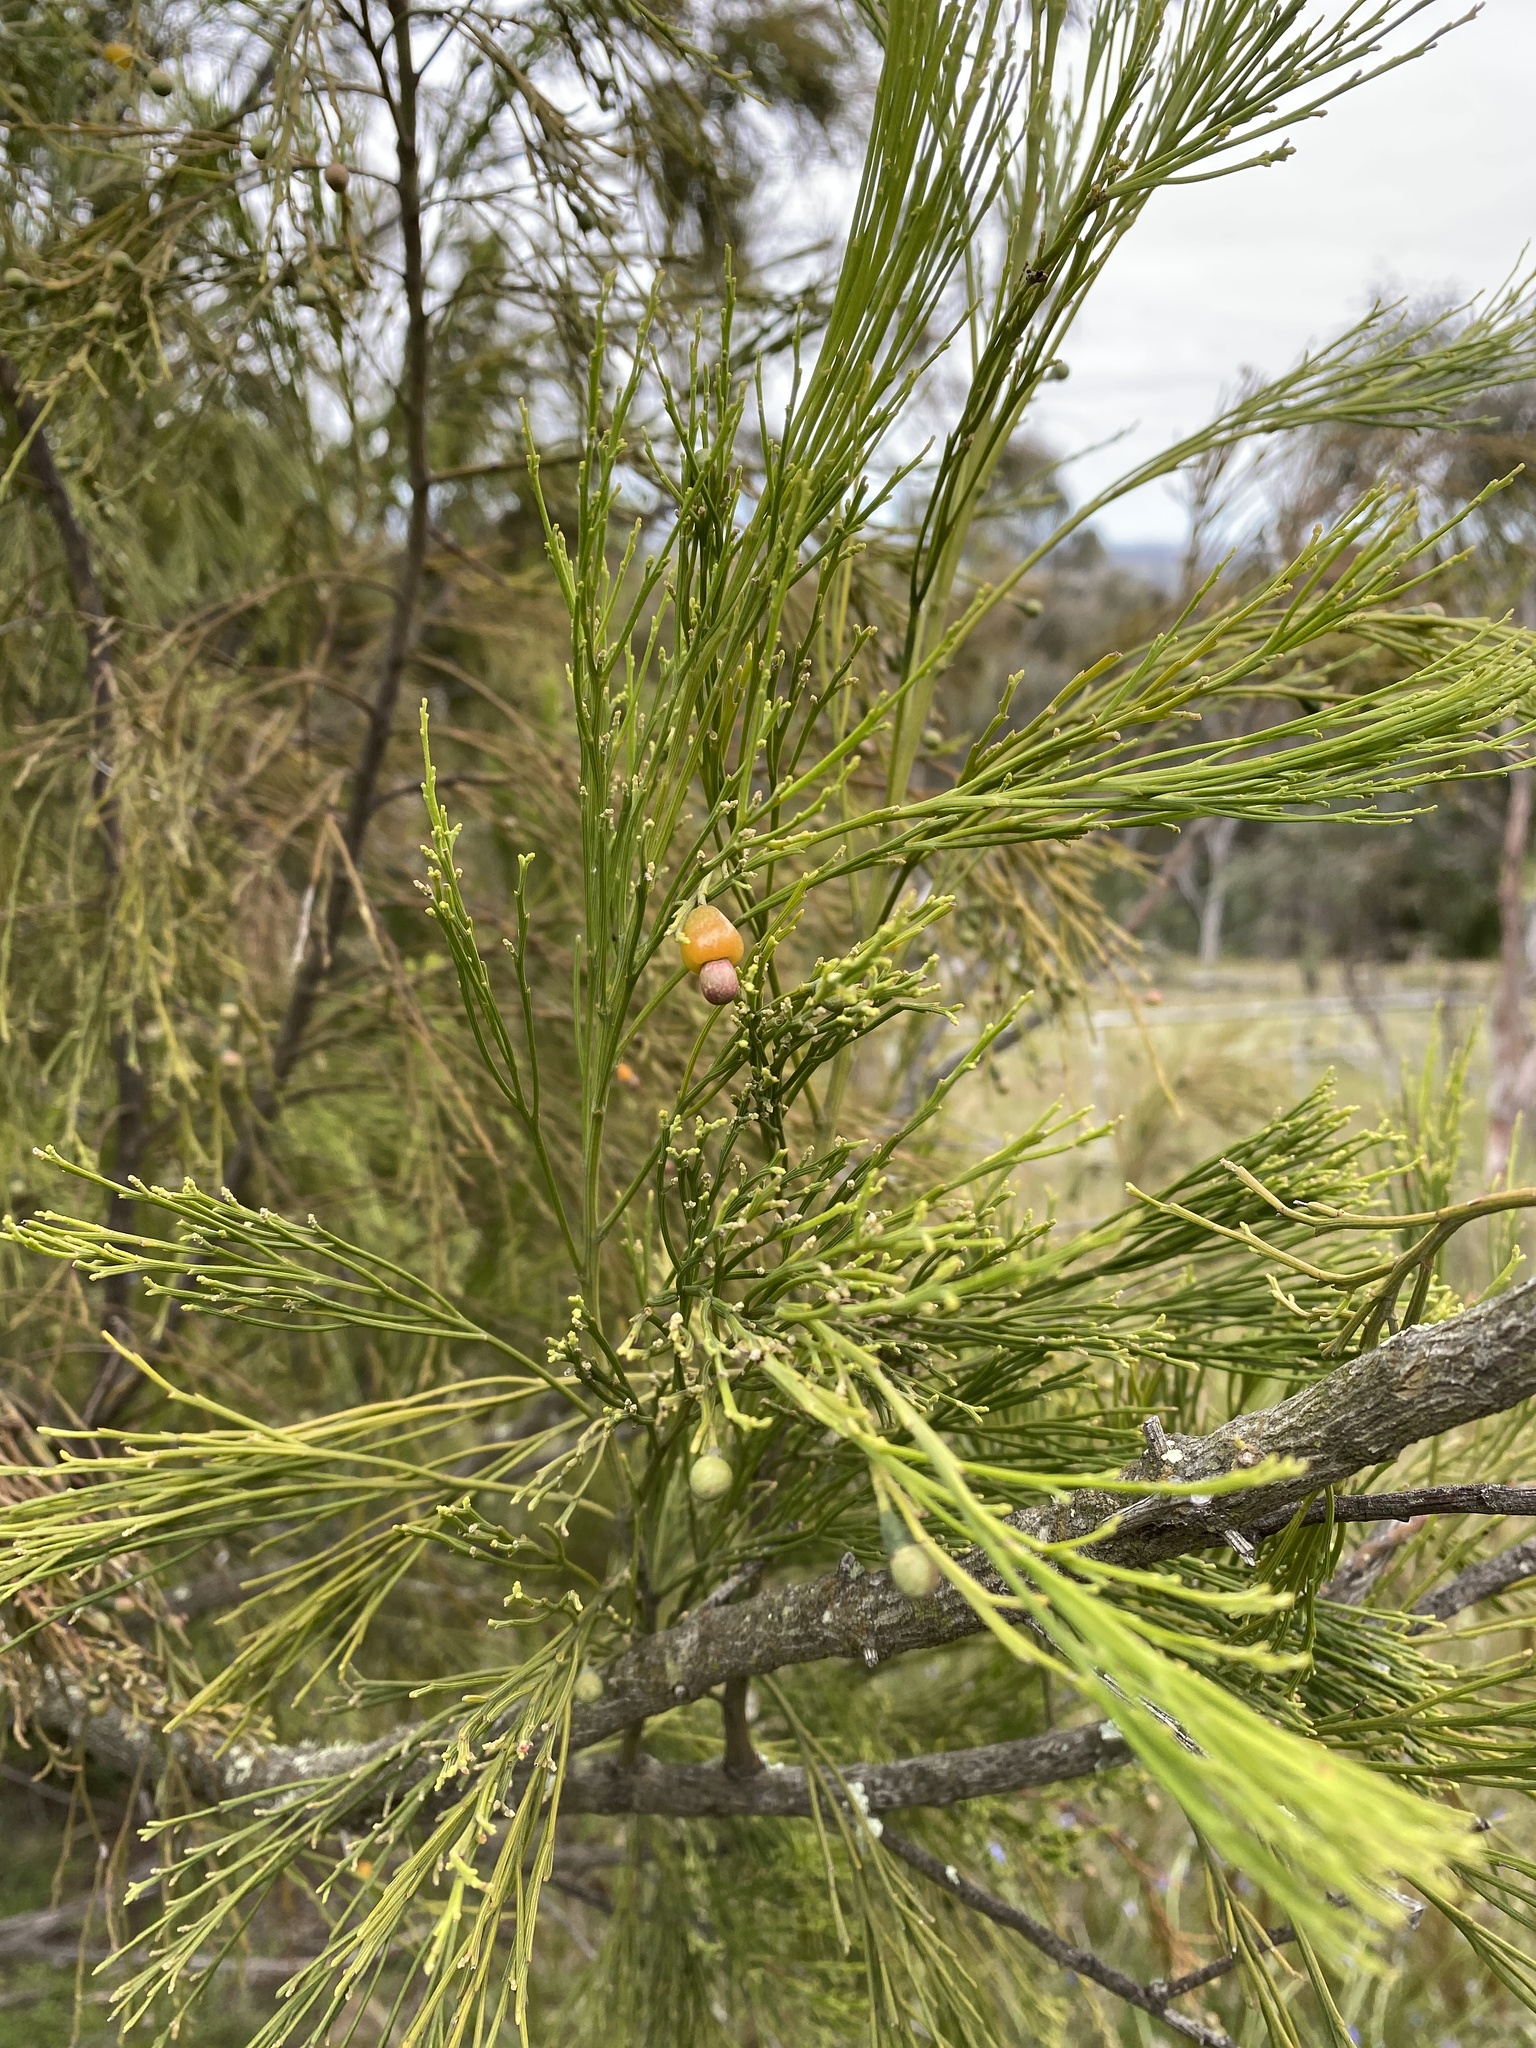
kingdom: Plantae
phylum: Tracheophyta
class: Magnoliopsida
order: Santalales
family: Santalaceae
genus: Exocarpos
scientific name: Exocarpos cupressiformis
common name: Cherry ballart
